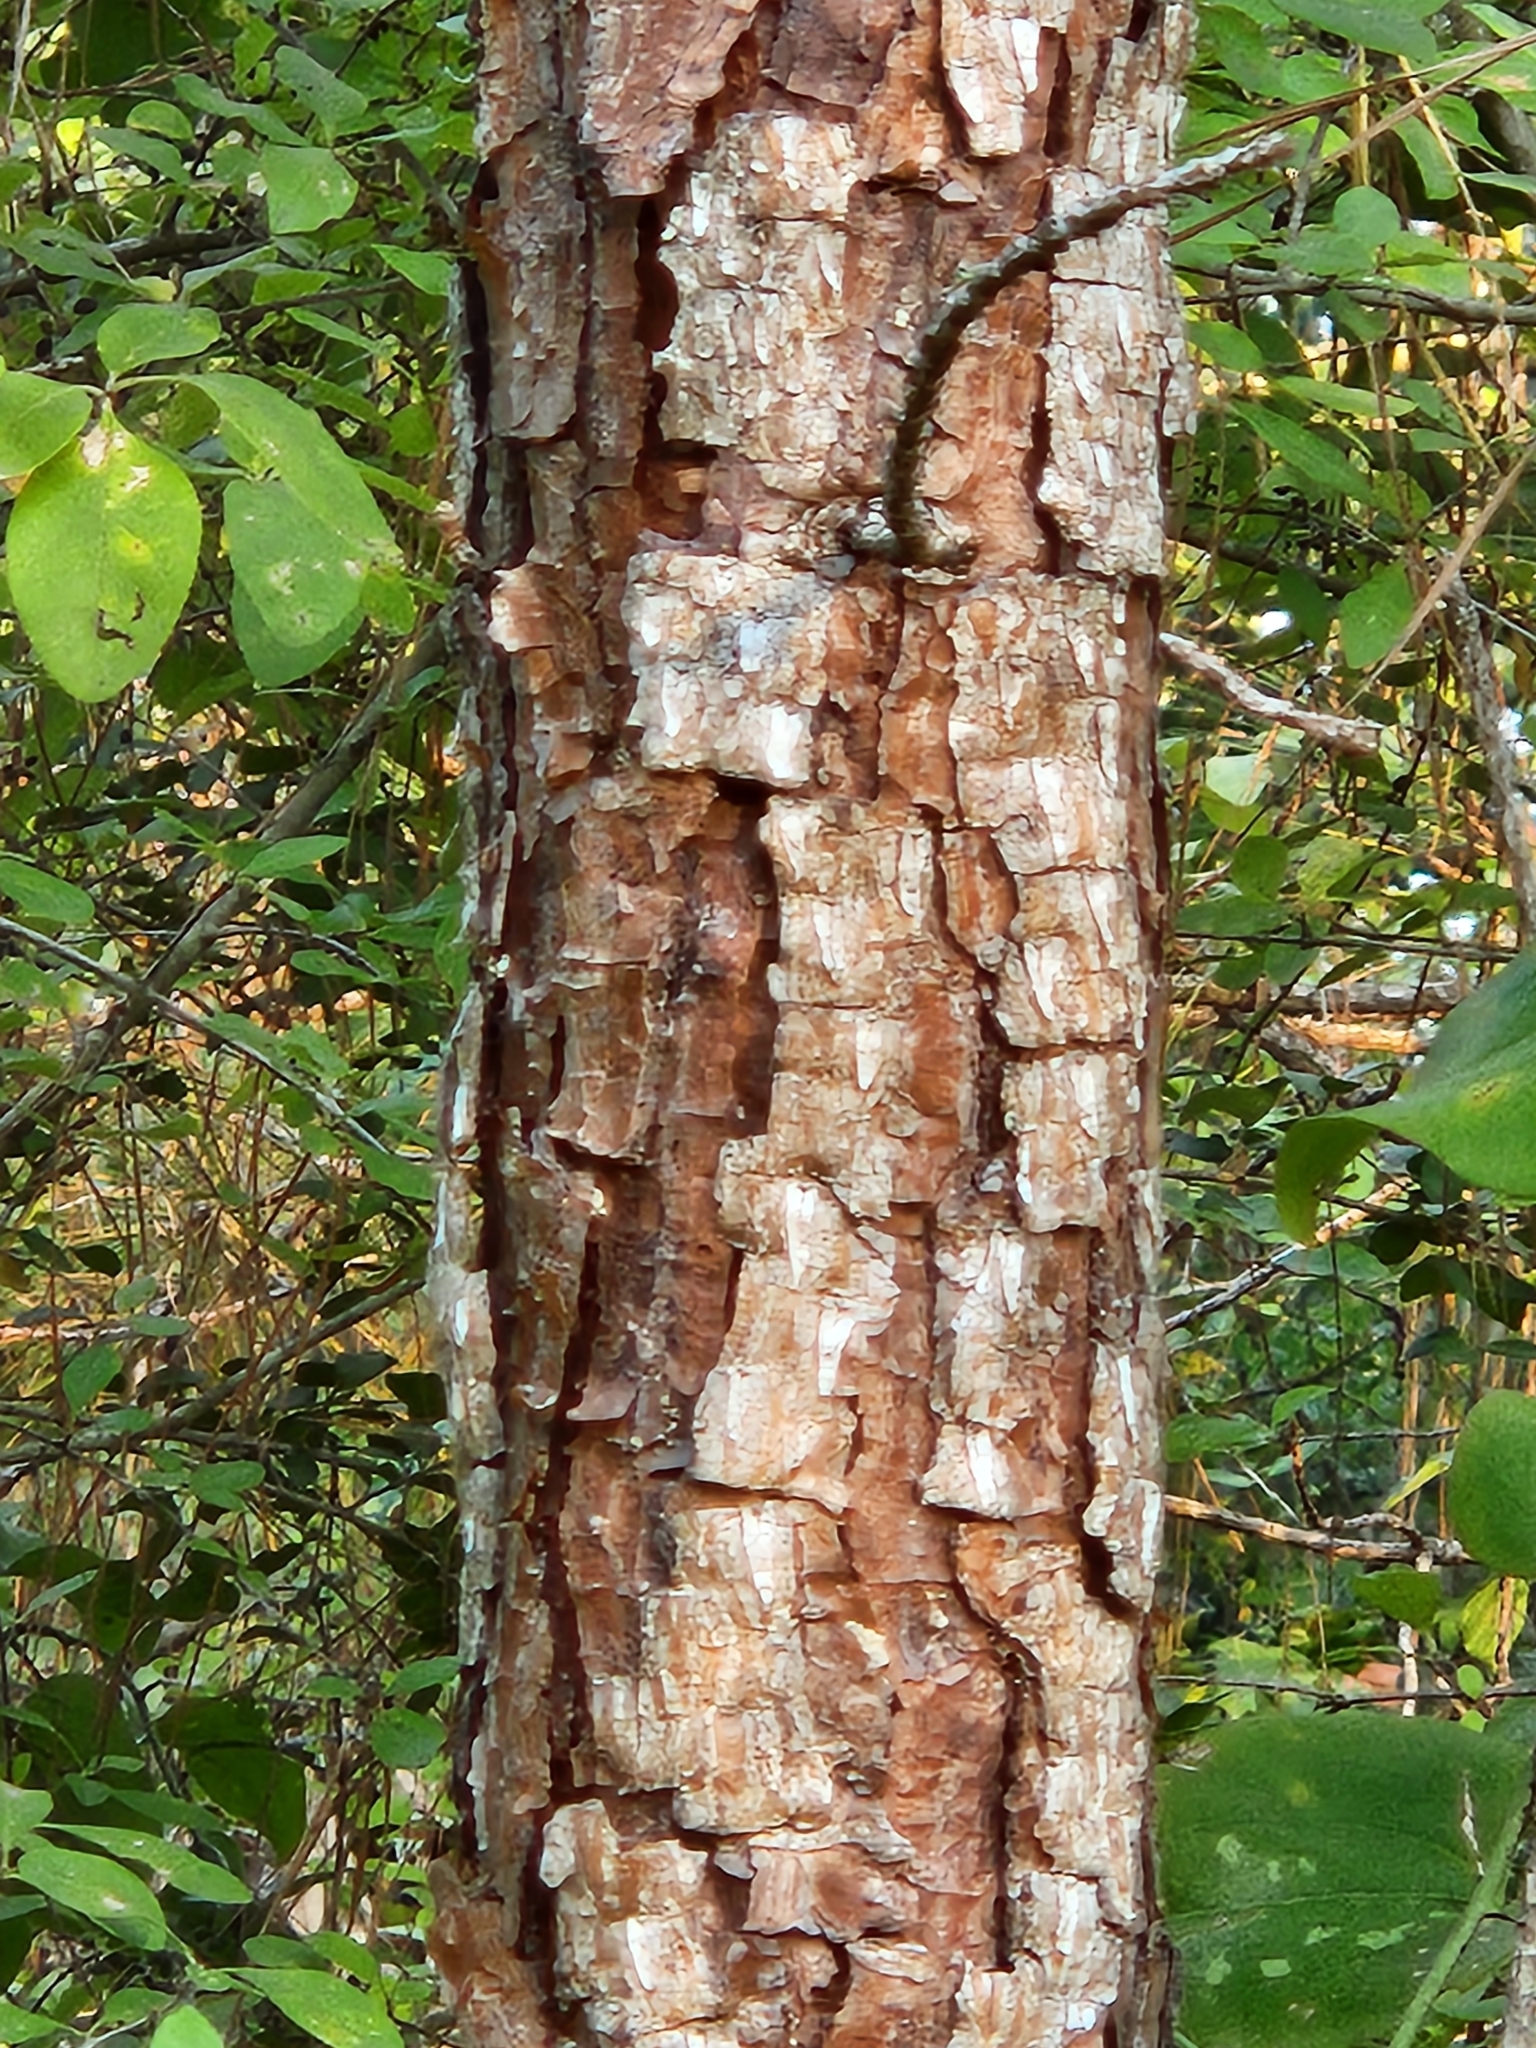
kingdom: Plantae
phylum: Tracheophyta
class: Pinopsida
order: Pinales
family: Pinaceae
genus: Pinus
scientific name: Pinus taeda
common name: Loblolly pine
